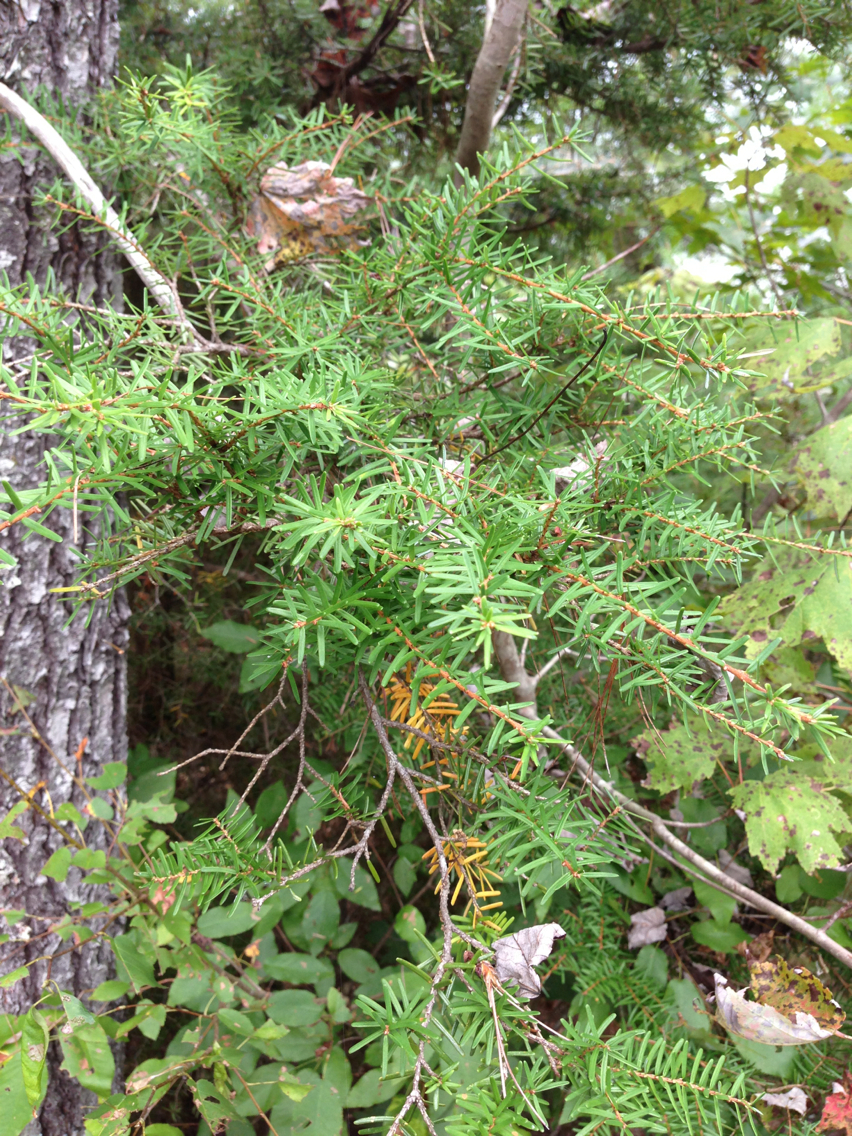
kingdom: Plantae
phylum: Tracheophyta
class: Pinopsida
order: Pinales
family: Pinaceae
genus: Tsuga
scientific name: Tsuga caroliniana
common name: Carolina hemlock
